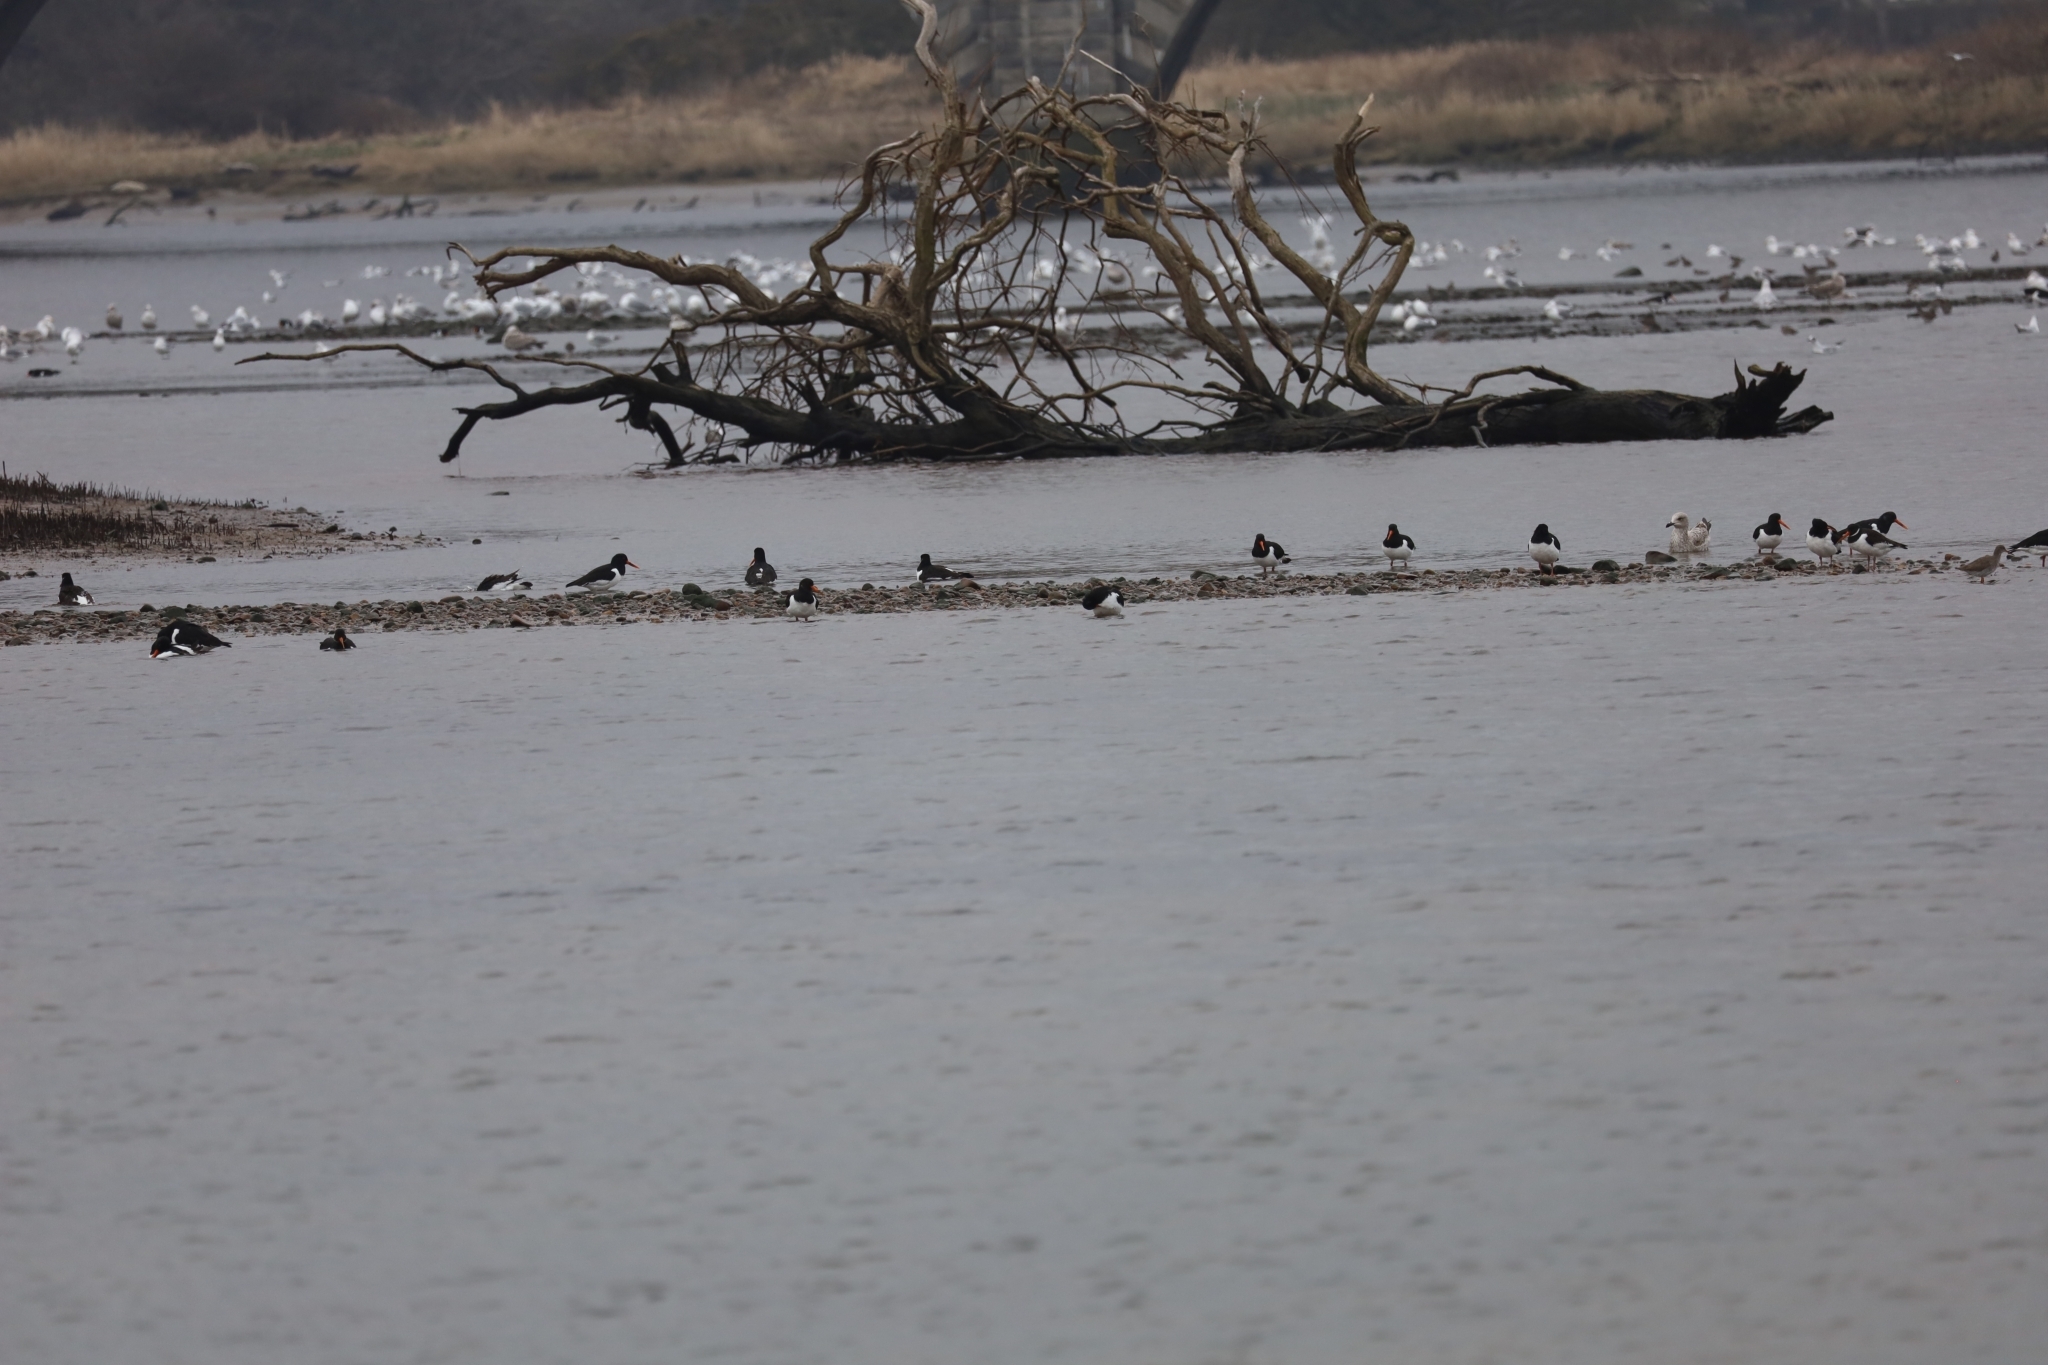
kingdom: Animalia
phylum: Chordata
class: Aves
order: Charadriiformes
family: Haematopodidae
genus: Haematopus
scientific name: Haematopus ostralegus
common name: Eurasian oystercatcher
